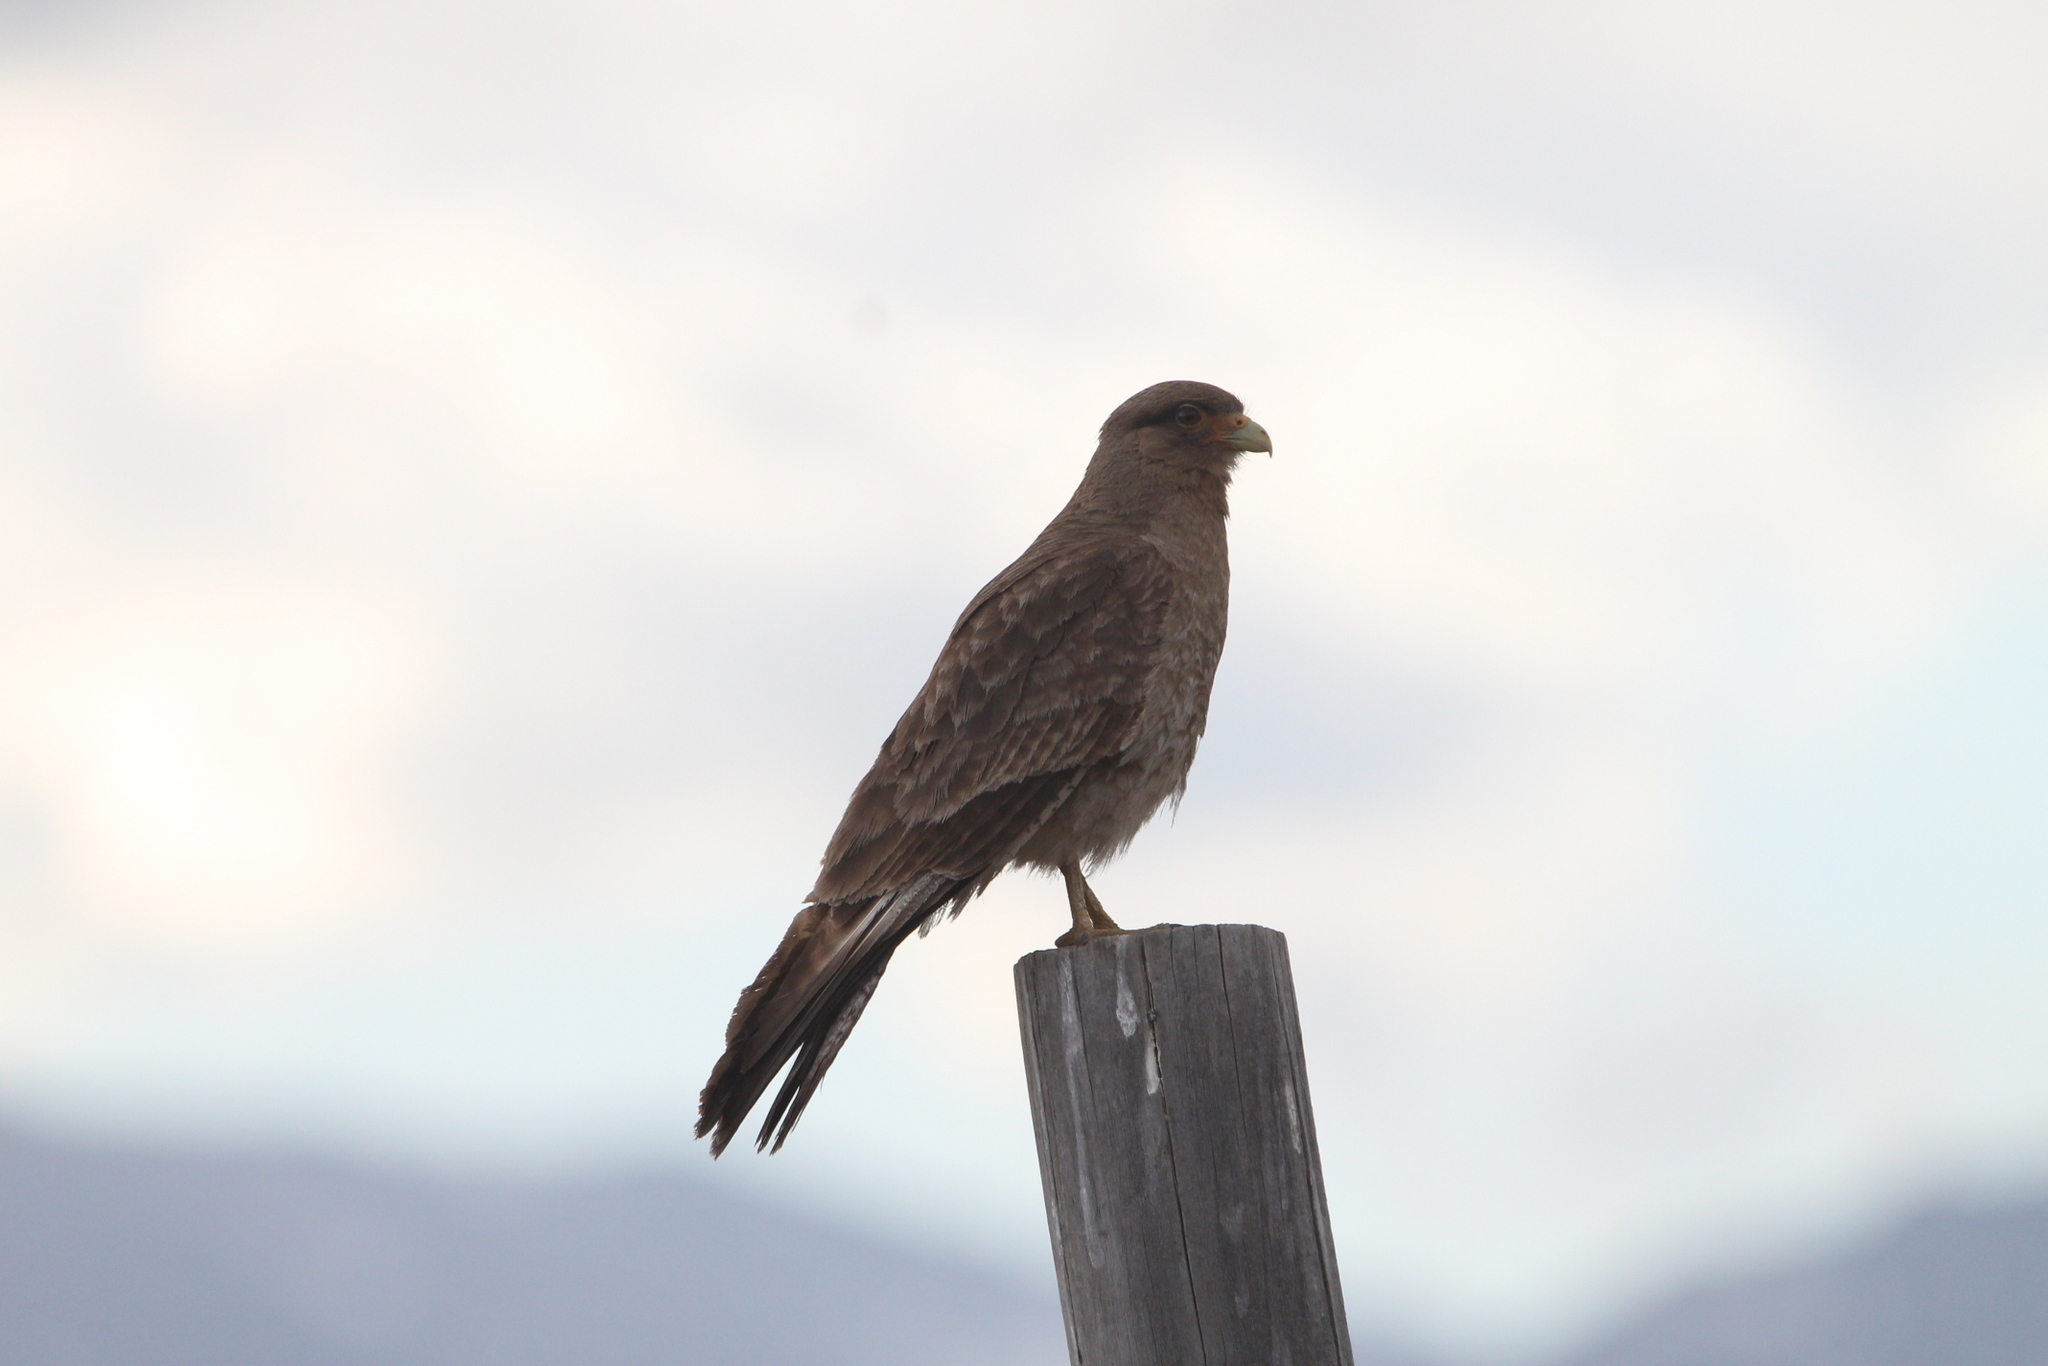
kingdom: Animalia
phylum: Chordata
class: Aves
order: Falconiformes
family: Falconidae
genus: Daptrius
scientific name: Daptrius
